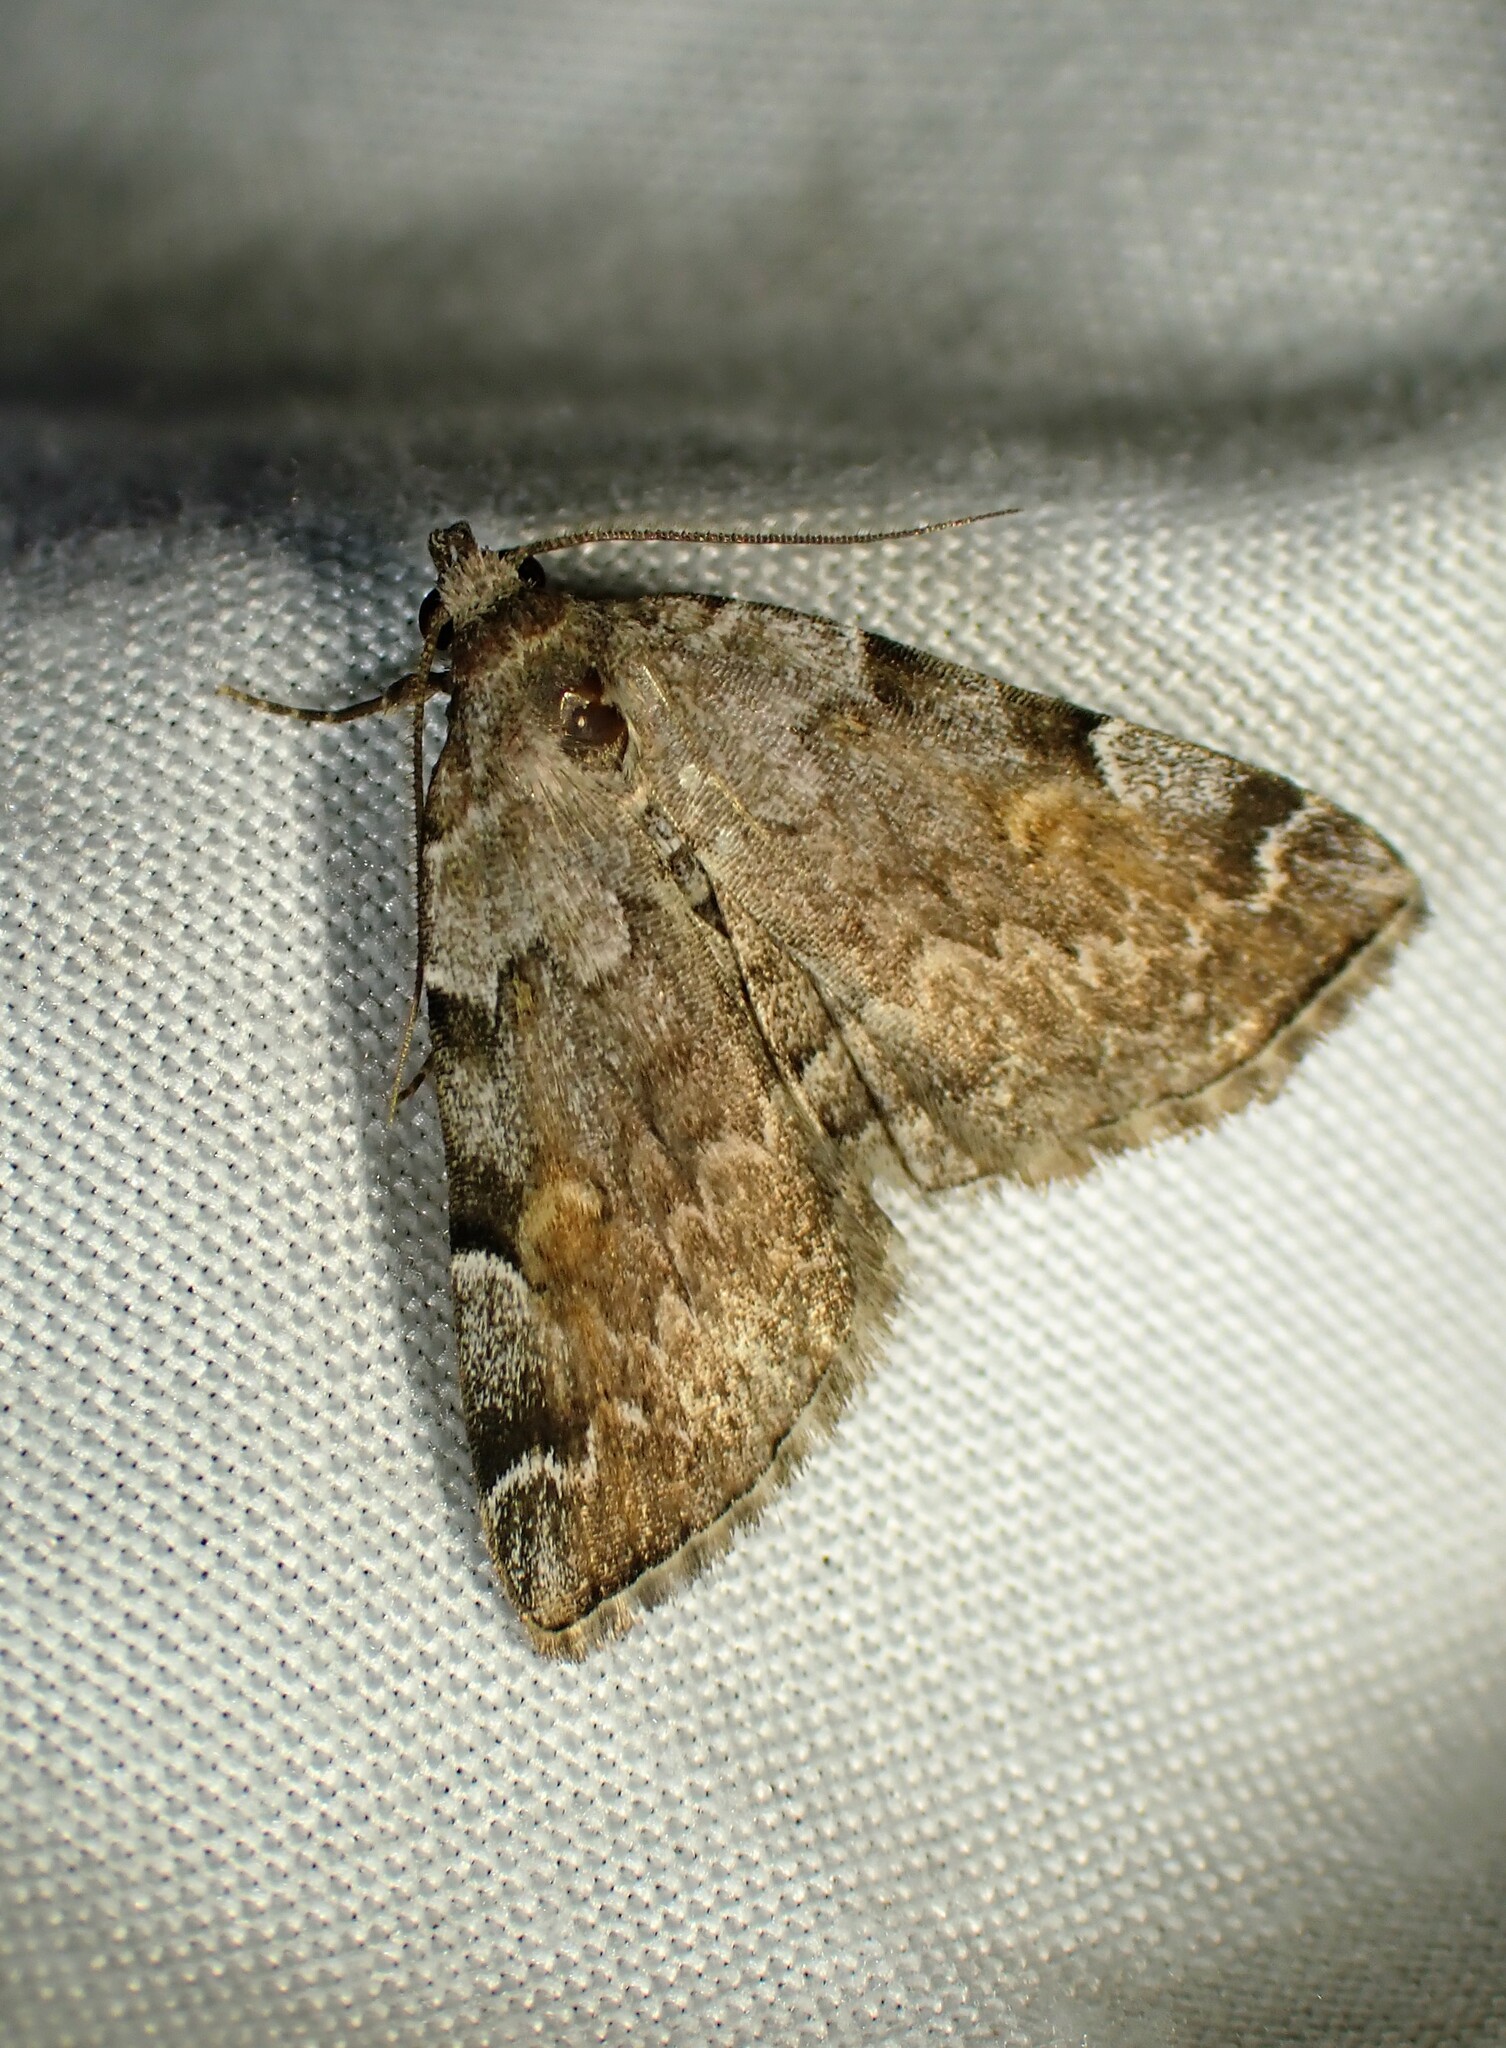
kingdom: Animalia
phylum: Arthropoda
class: Insecta
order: Lepidoptera
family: Erebidae
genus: Idia
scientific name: Idia americalis
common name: American idia moth
